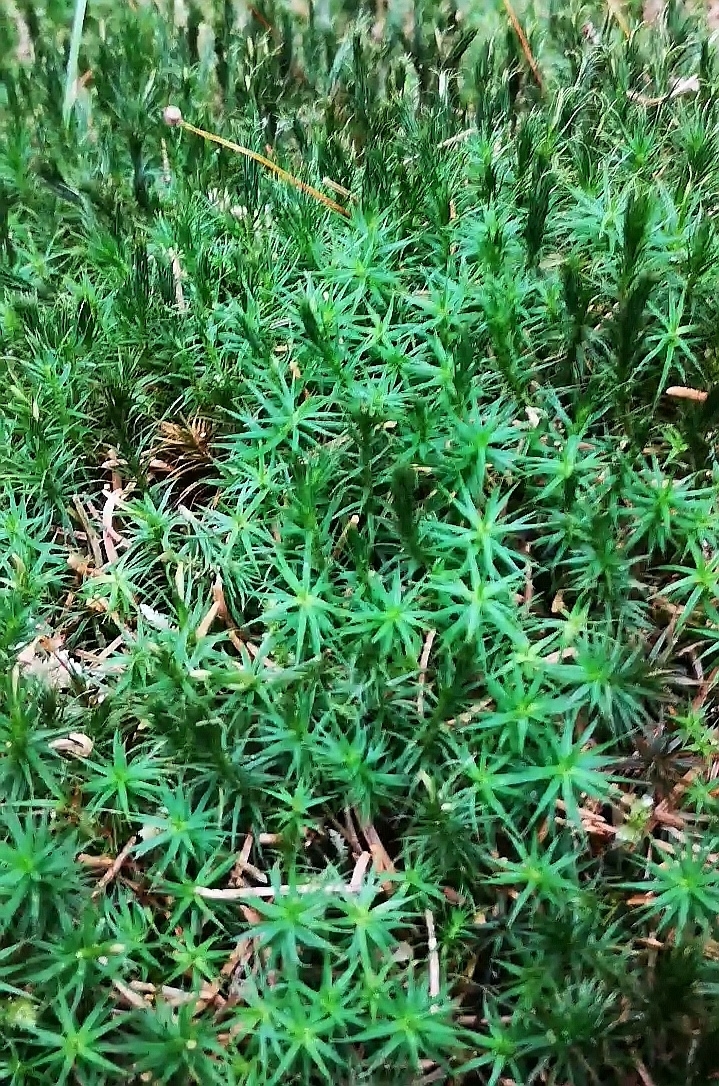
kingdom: Plantae
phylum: Bryophyta
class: Polytrichopsida
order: Polytrichales
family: Polytrichaceae
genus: Polytrichum
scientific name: Polytrichum formosum
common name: Bank haircap moss
